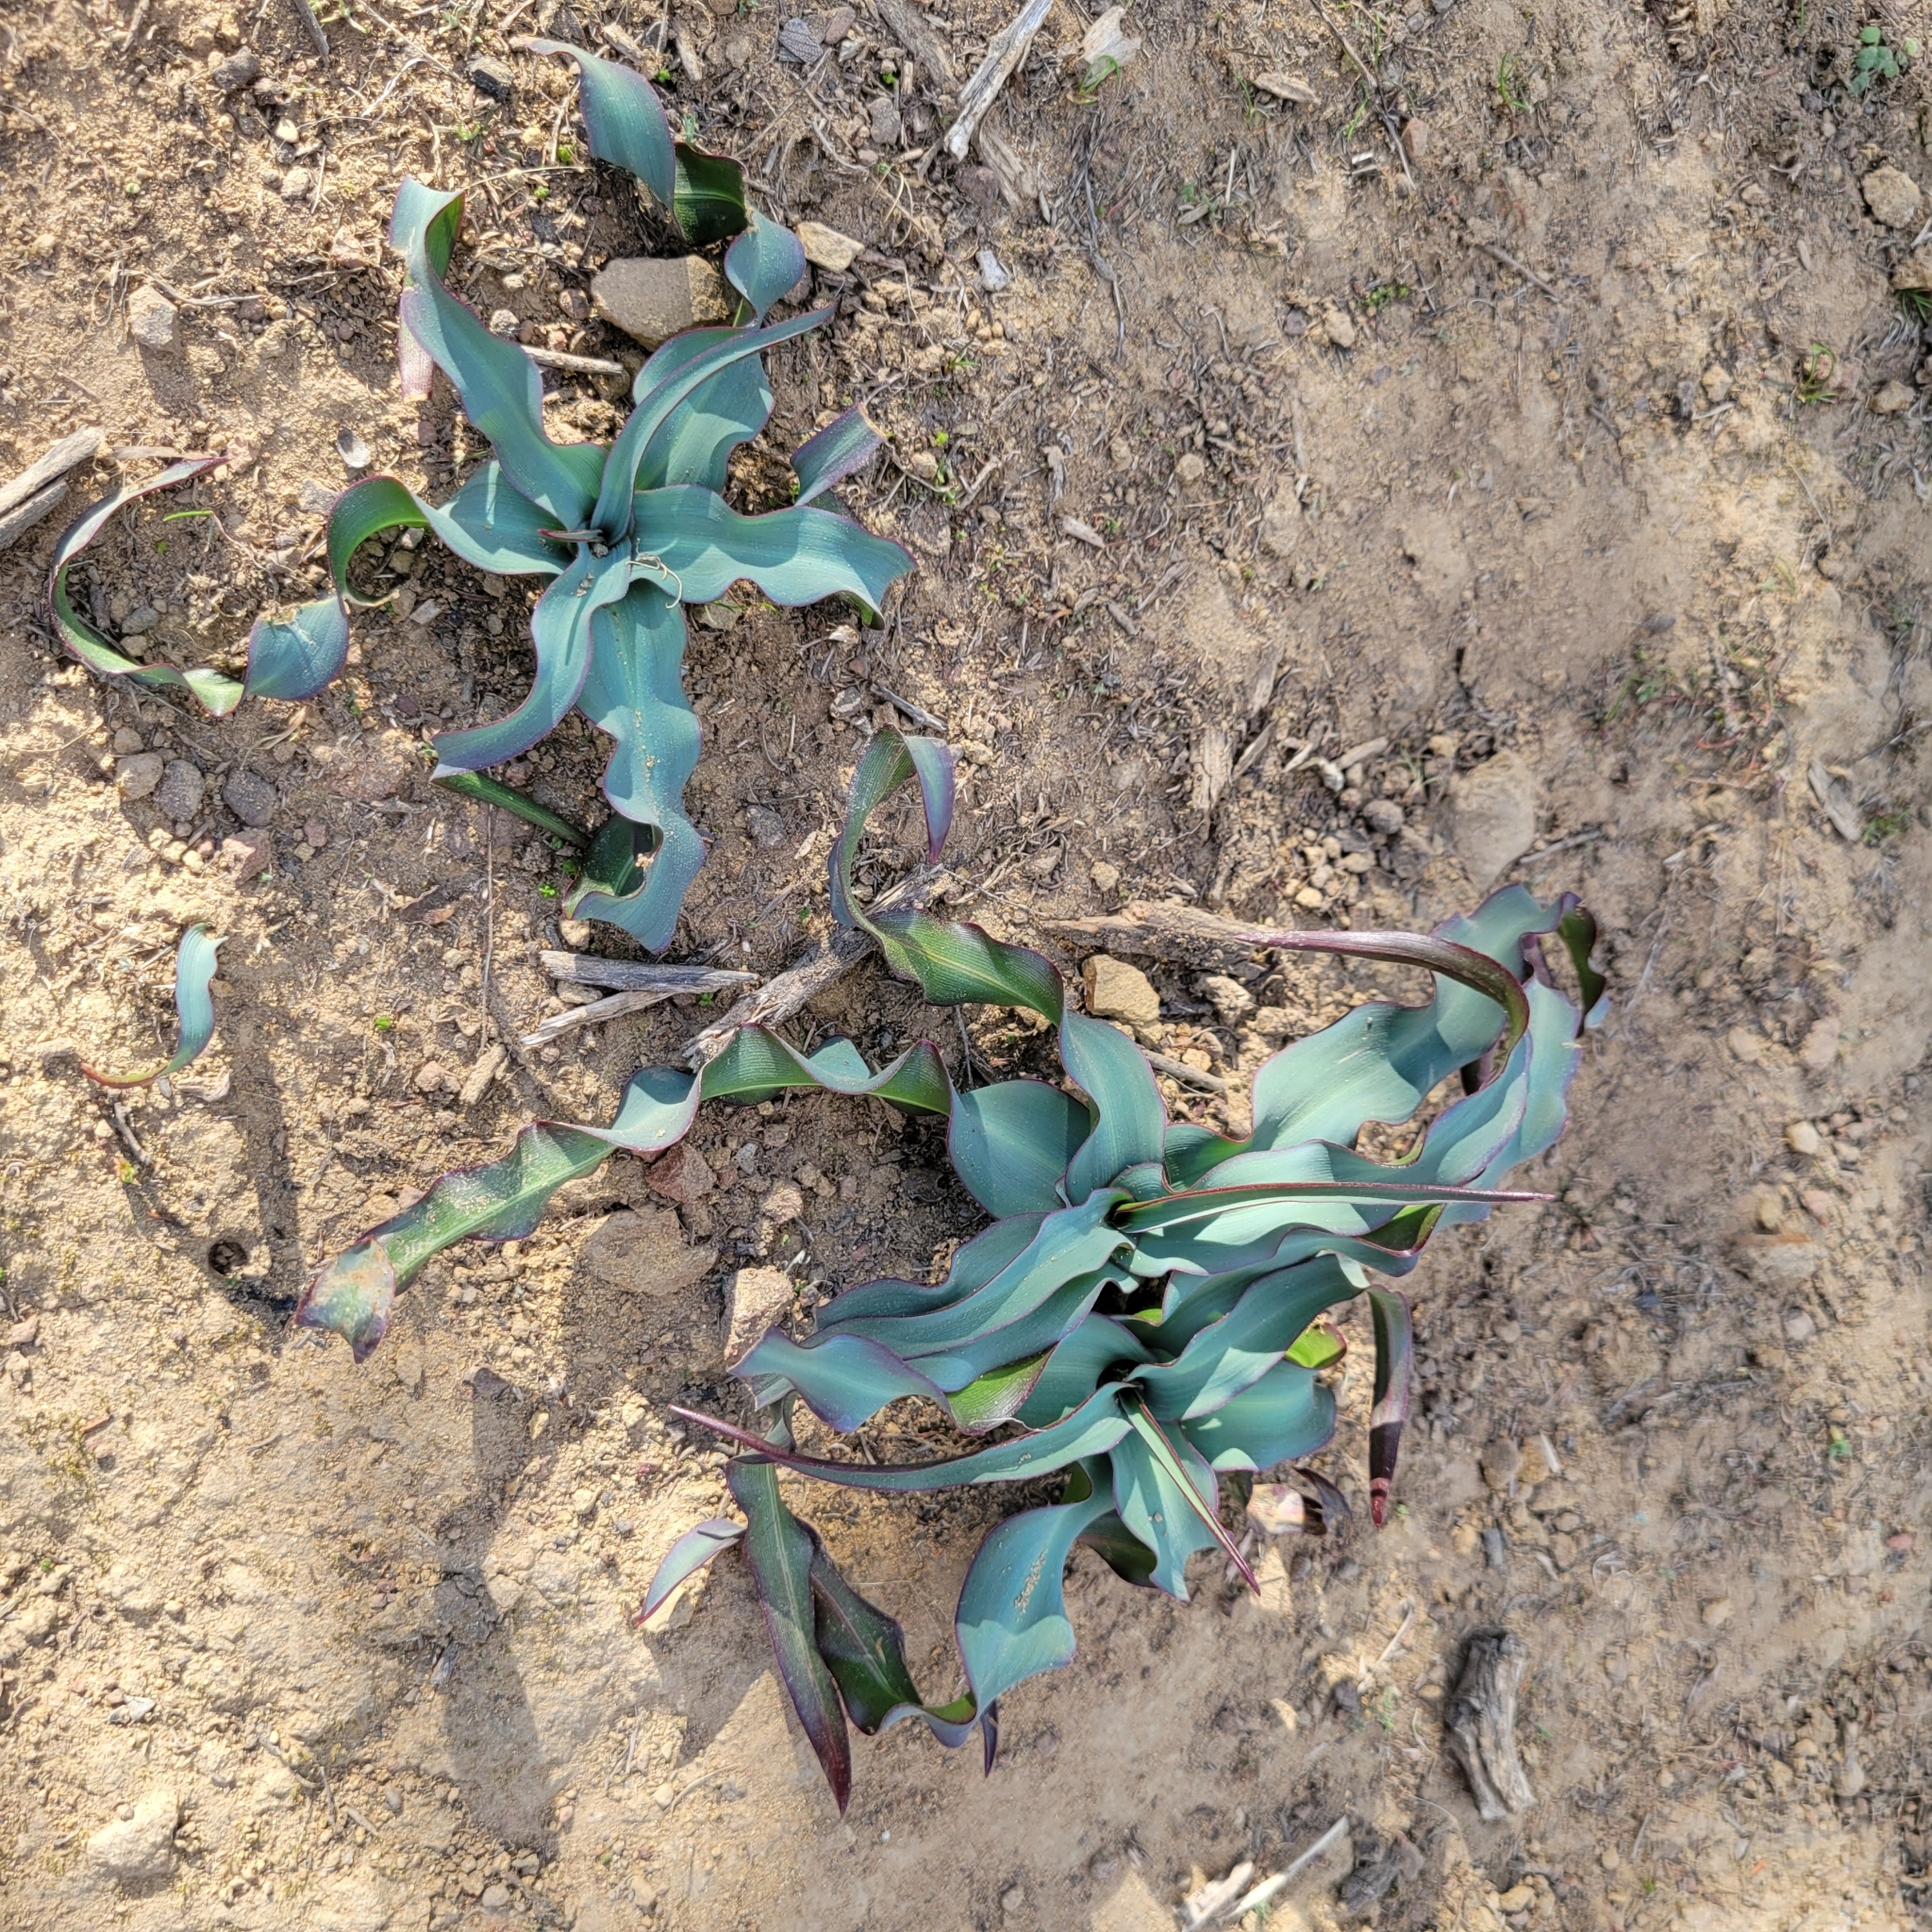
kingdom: Plantae
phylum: Tracheophyta
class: Liliopsida
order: Asparagales
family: Asparagaceae
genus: Chlorogalum
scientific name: Chlorogalum pomeridianum
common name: Amole
